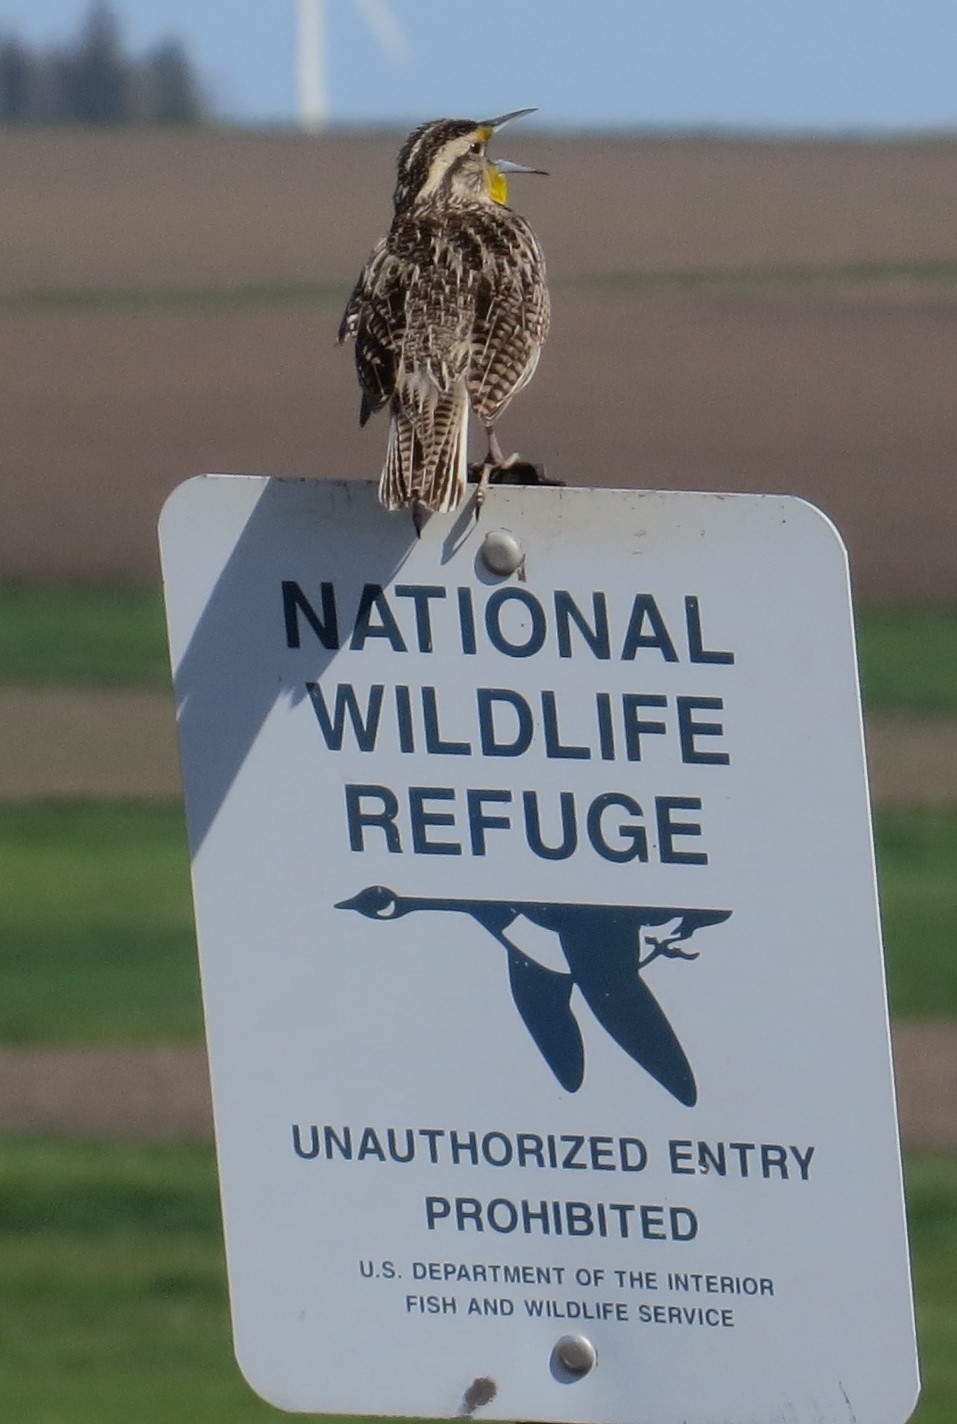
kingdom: Animalia
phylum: Chordata
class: Aves
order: Passeriformes
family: Icteridae
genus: Sturnella
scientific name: Sturnella neglecta
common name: Western meadowlark
